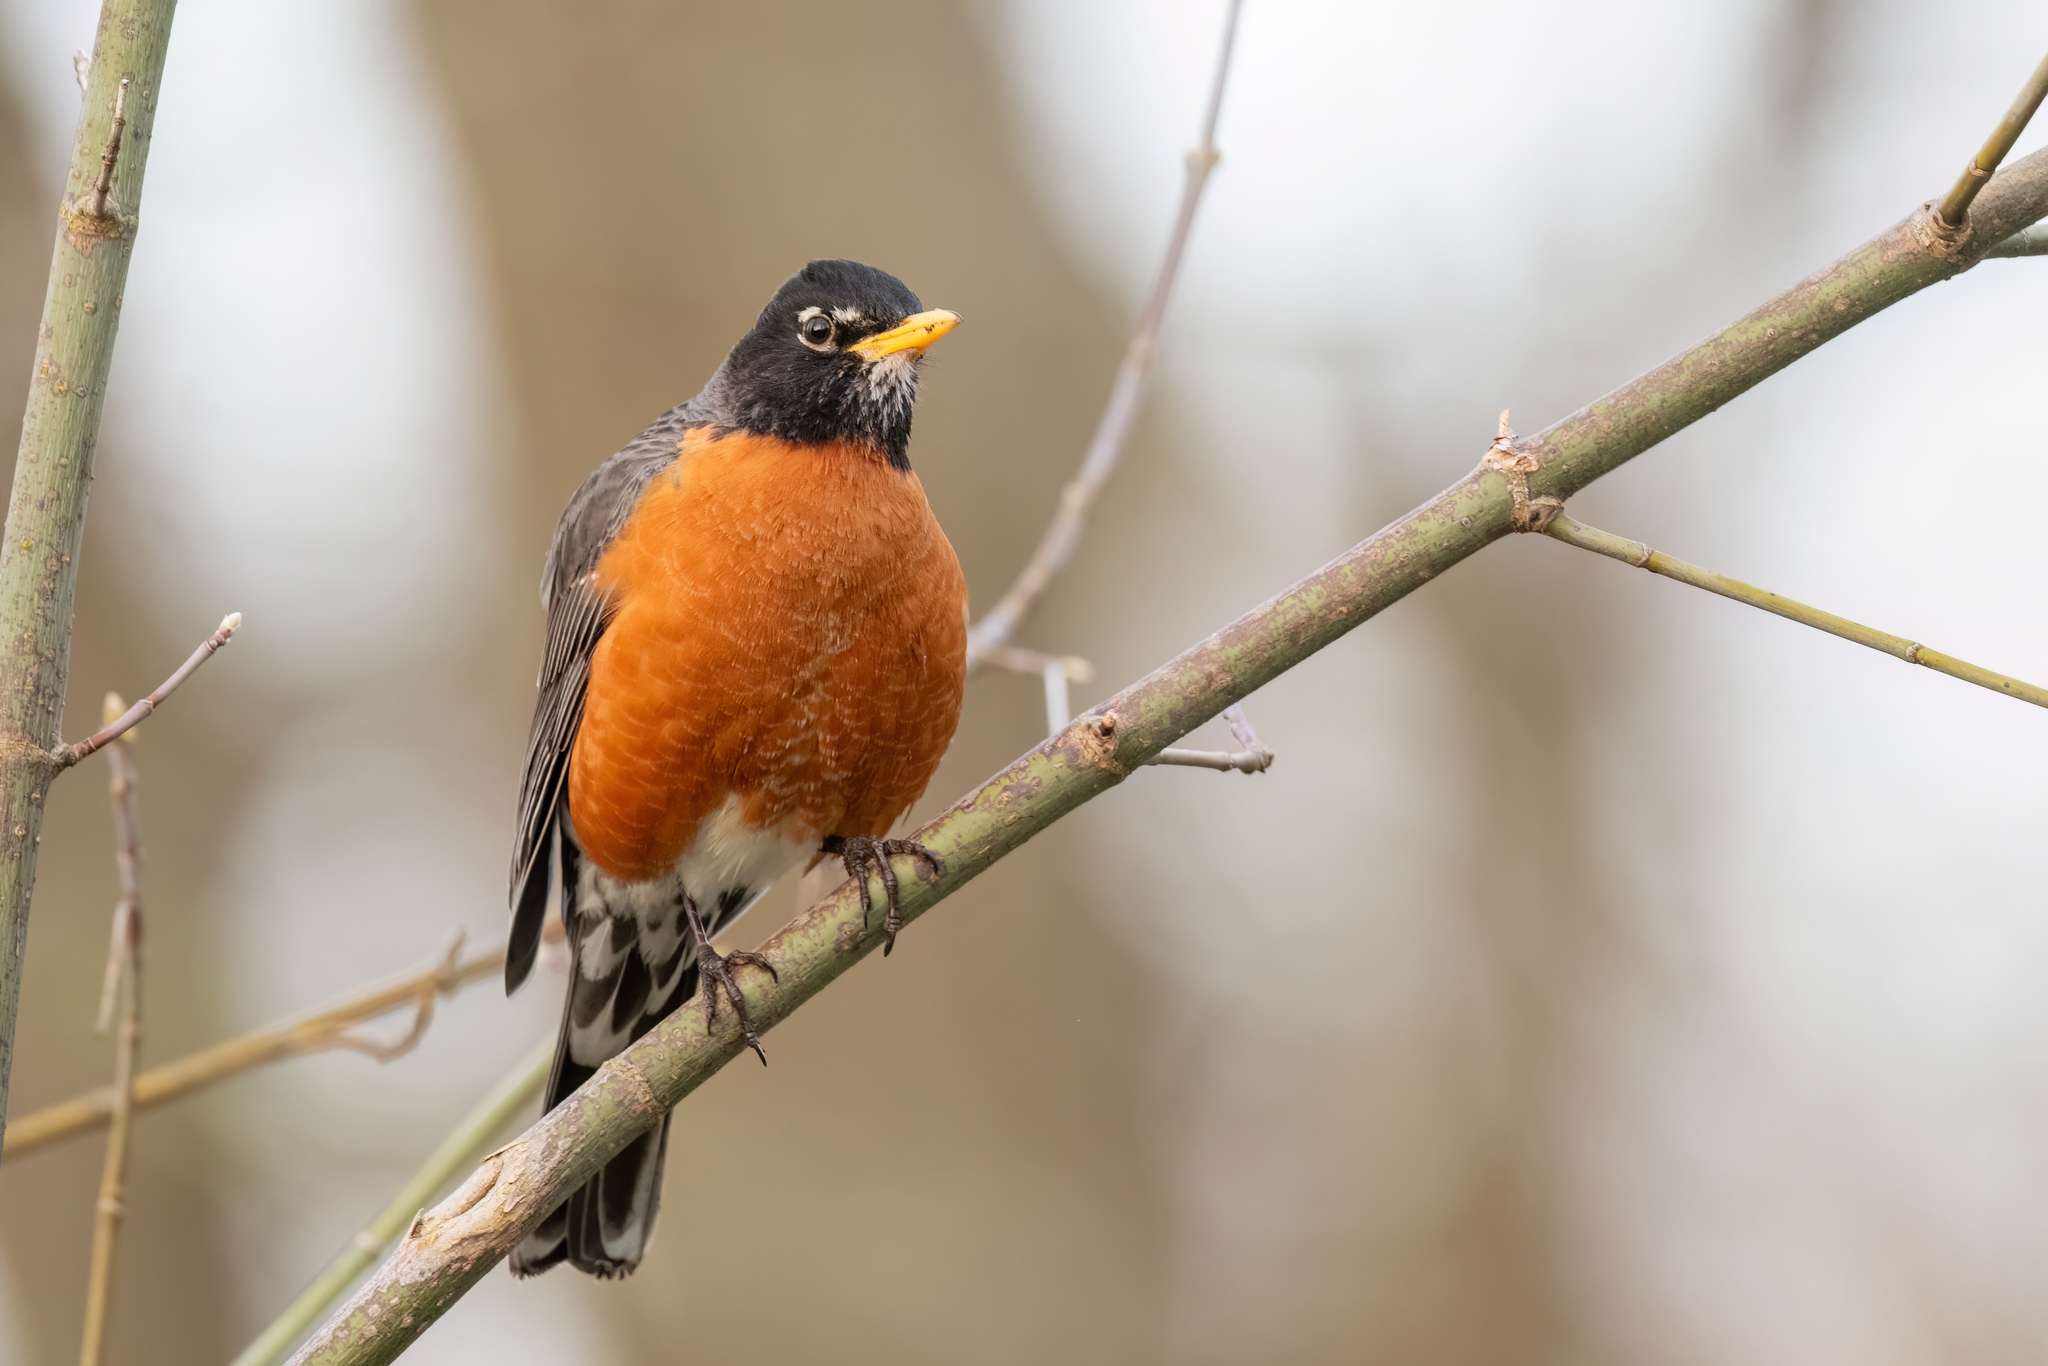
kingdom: Animalia
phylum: Chordata
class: Aves
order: Passeriformes
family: Turdidae
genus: Turdus
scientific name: Turdus migratorius
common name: American robin
